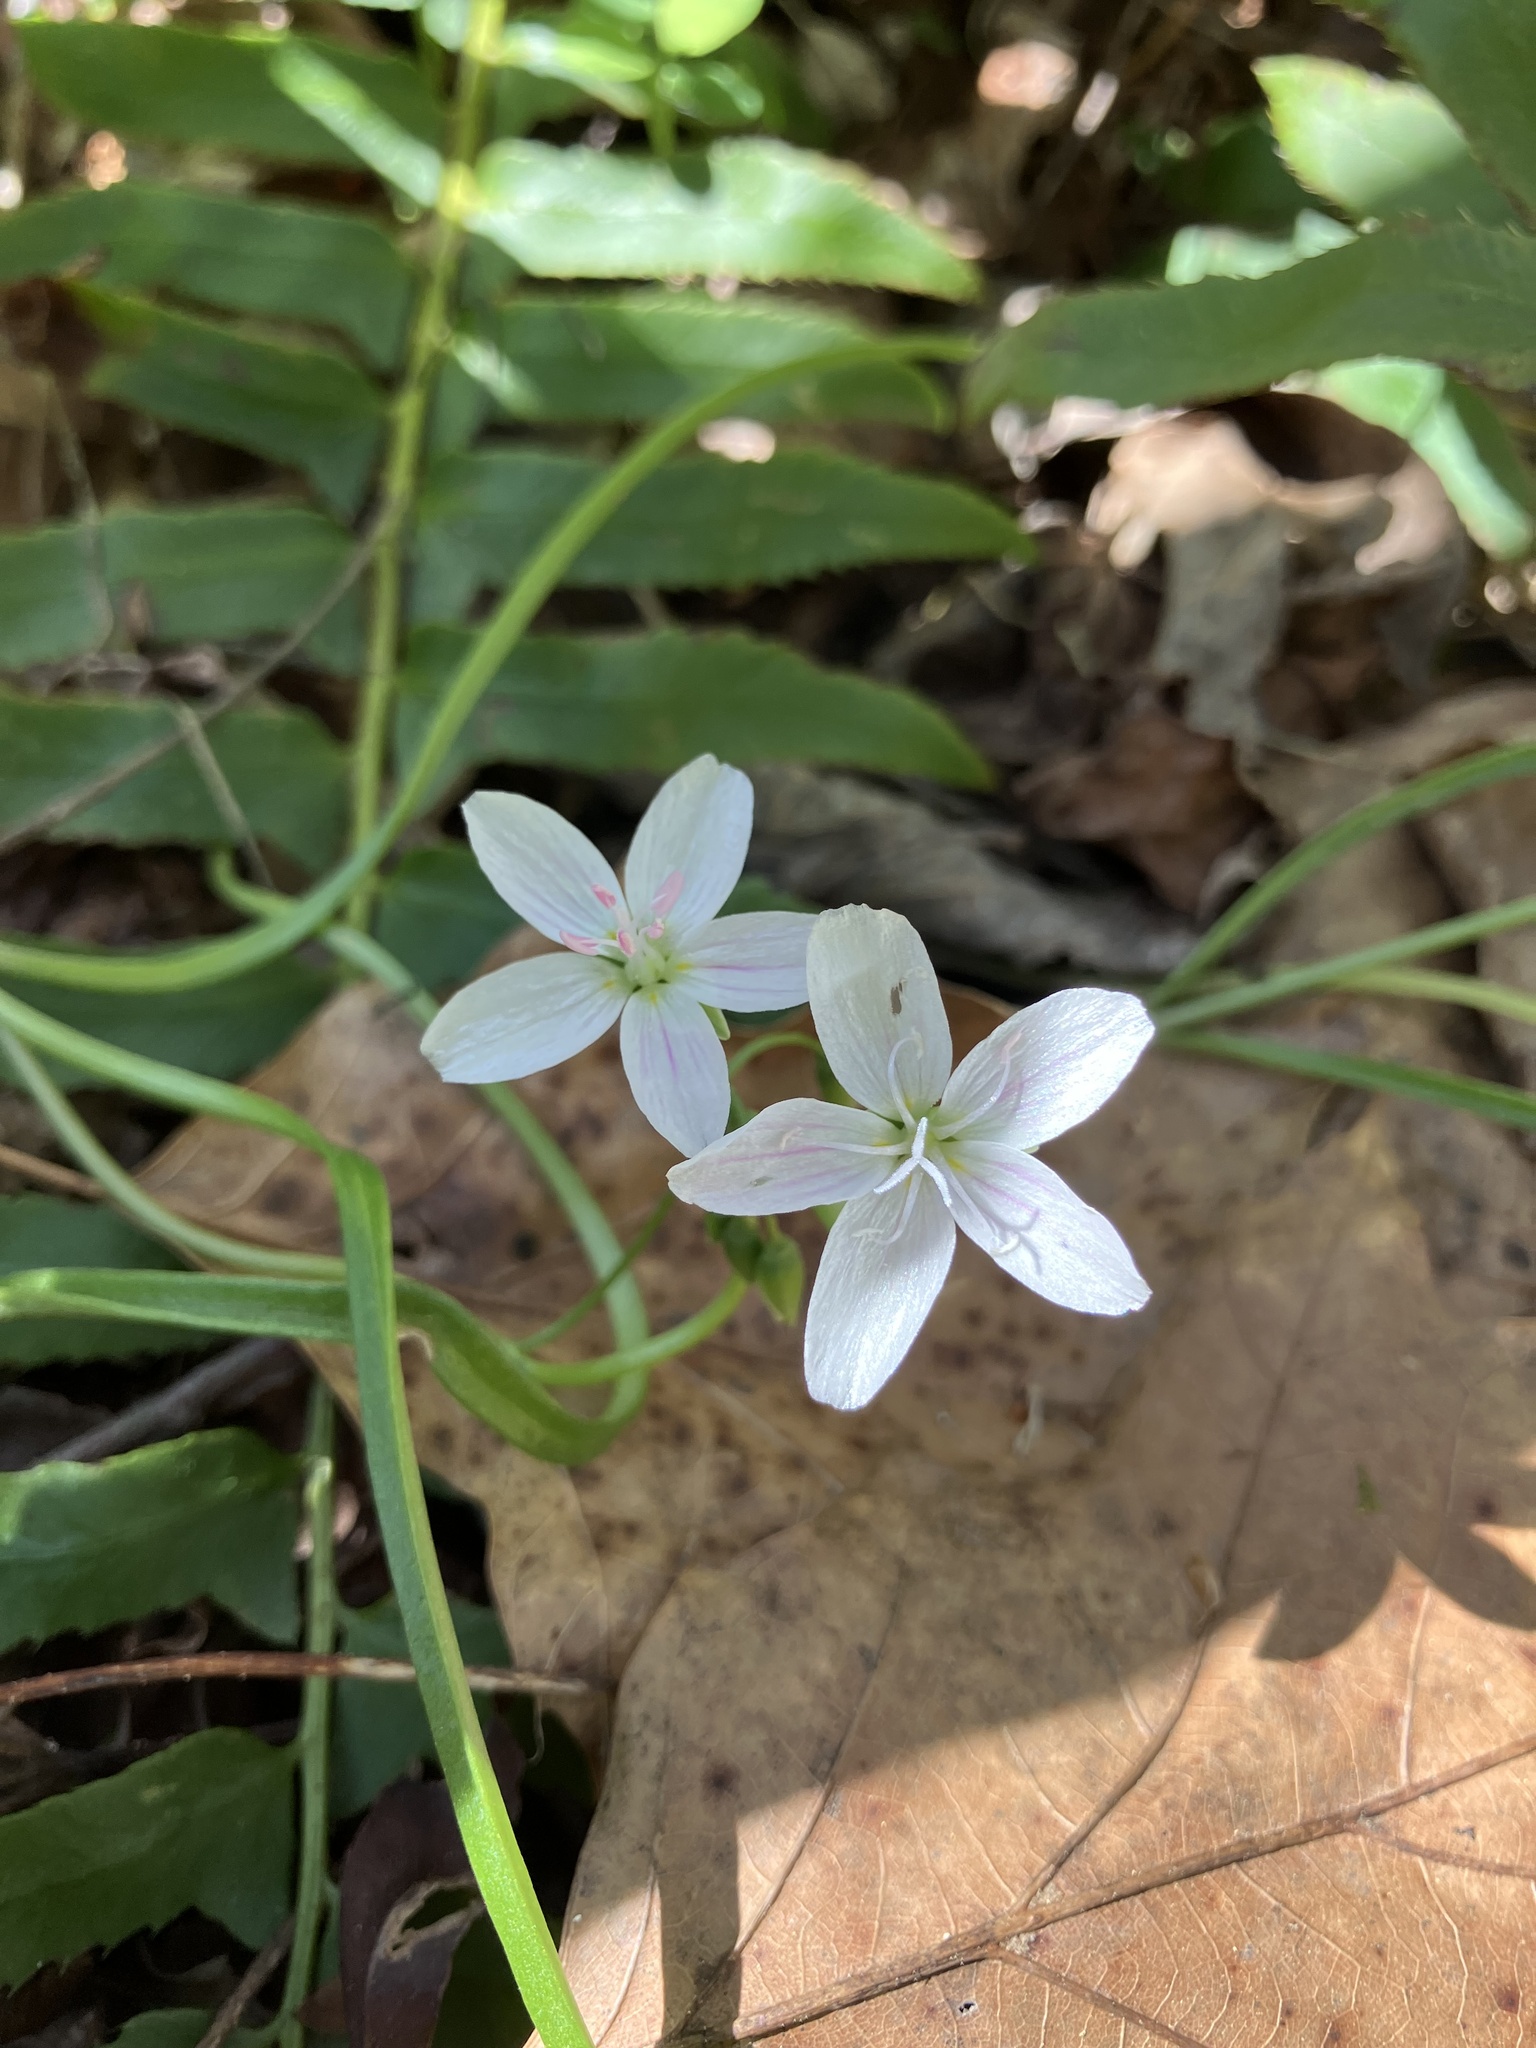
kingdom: Plantae
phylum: Tracheophyta
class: Magnoliopsida
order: Caryophyllales
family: Montiaceae
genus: Claytonia
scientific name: Claytonia virginica
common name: Virginia springbeauty
